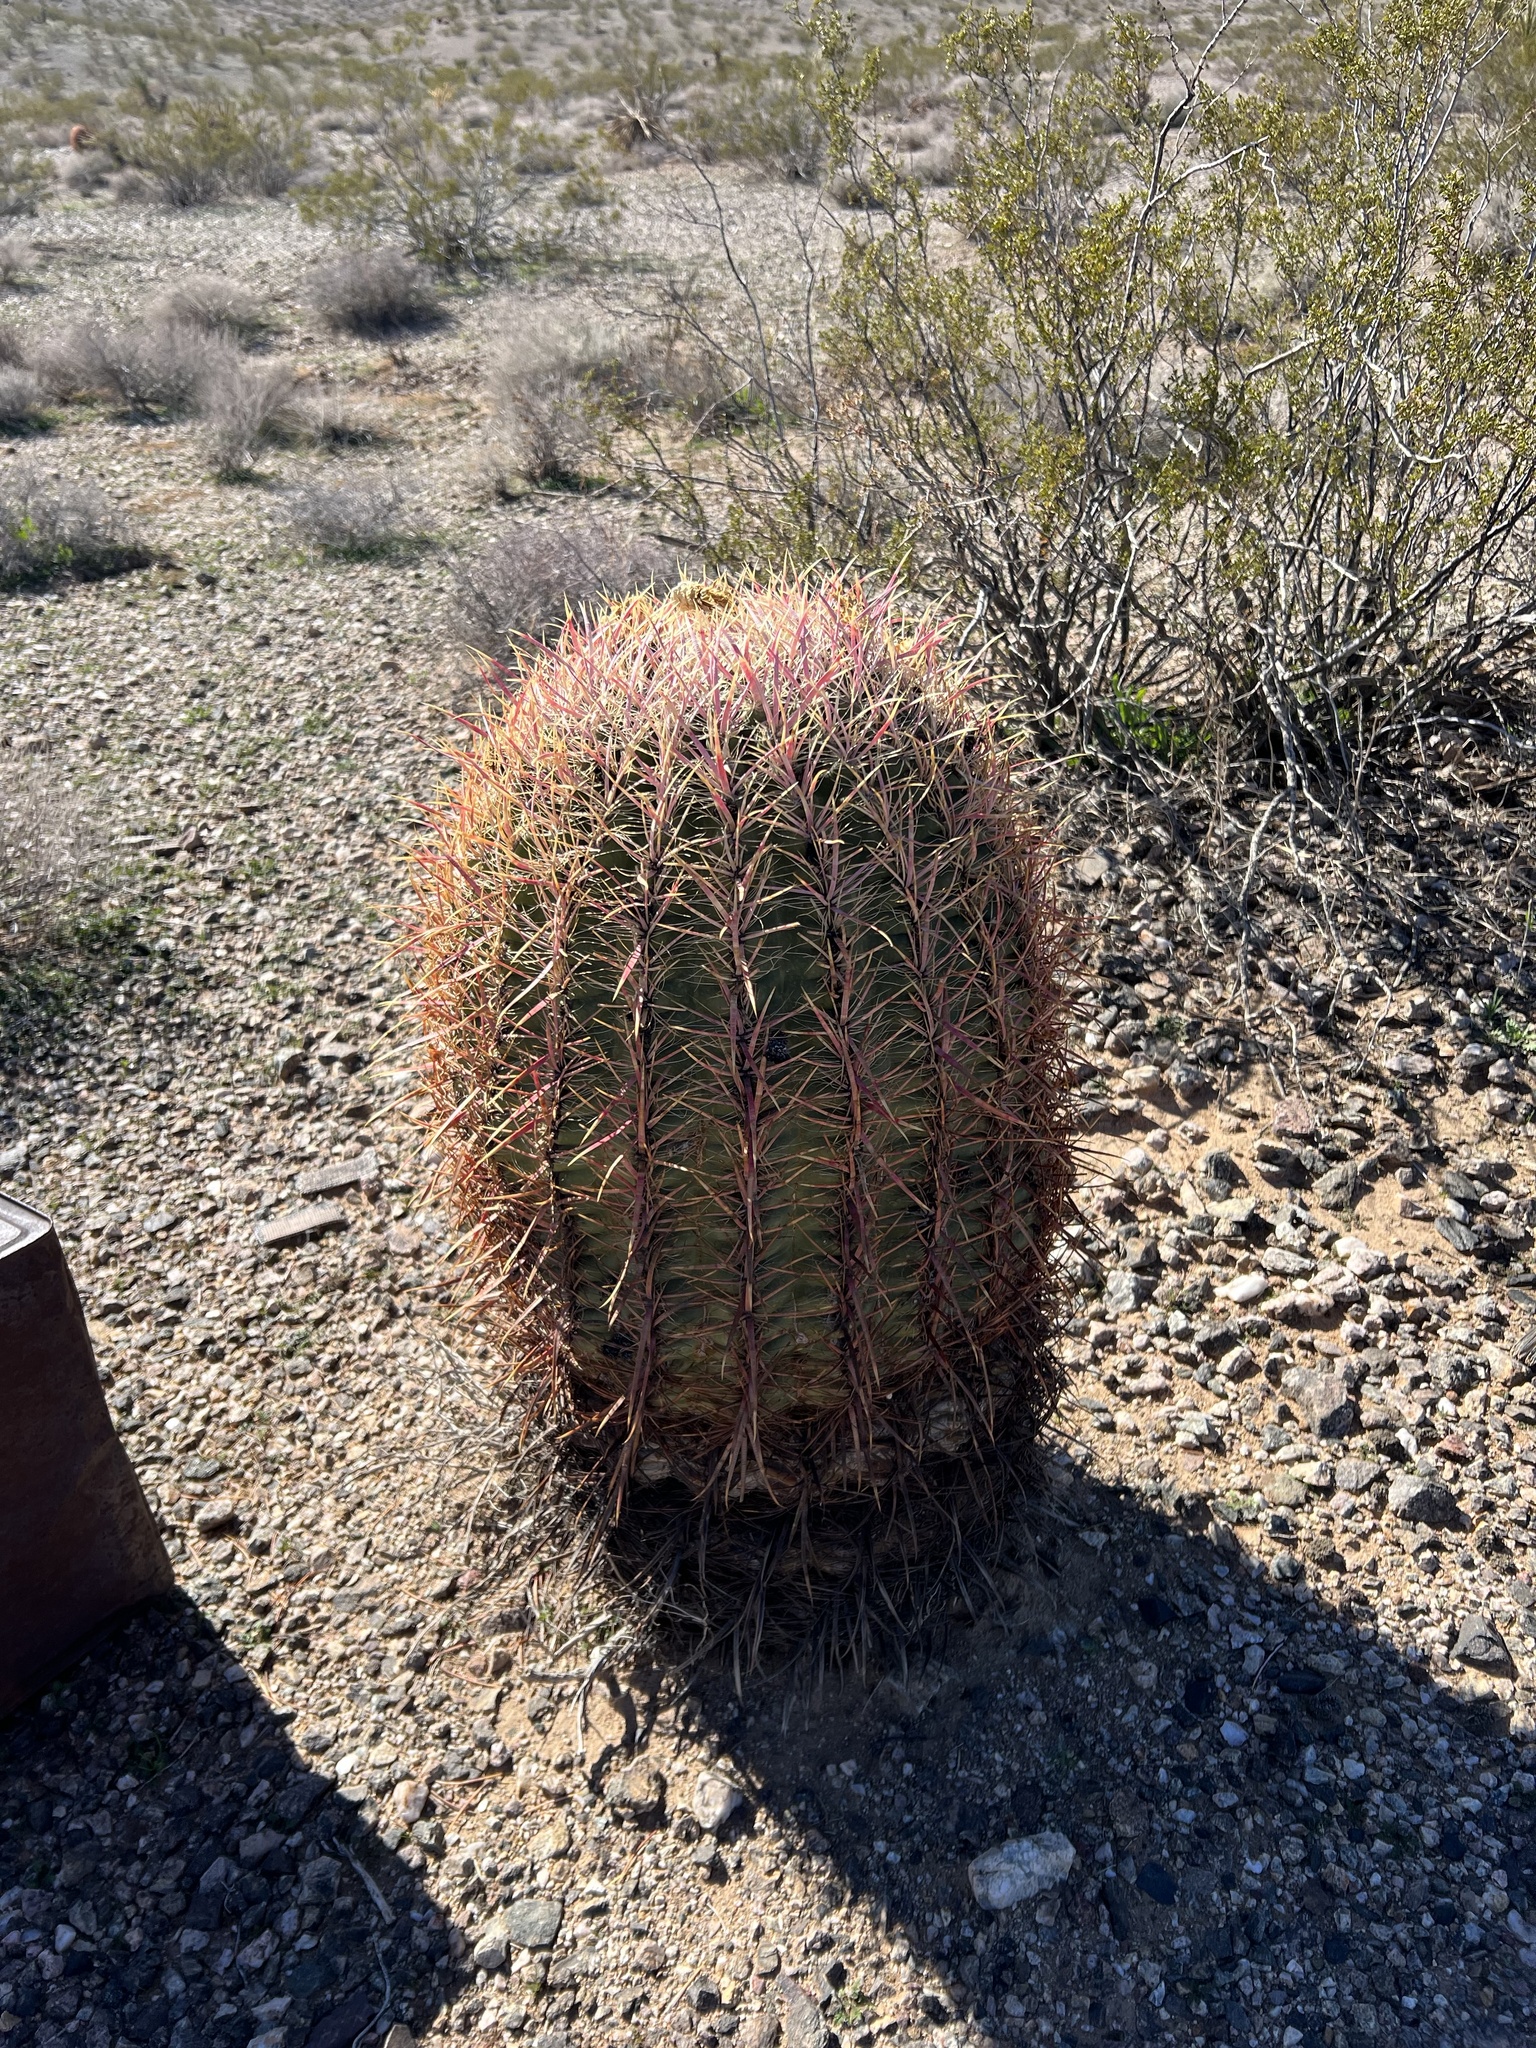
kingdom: Plantae
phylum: Tracheophyta
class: Magnoliopsida
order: Caryophyllales
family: Cactaceae
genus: Ferocactus
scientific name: Ferocactus cylindraceus
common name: California barrel cactus
